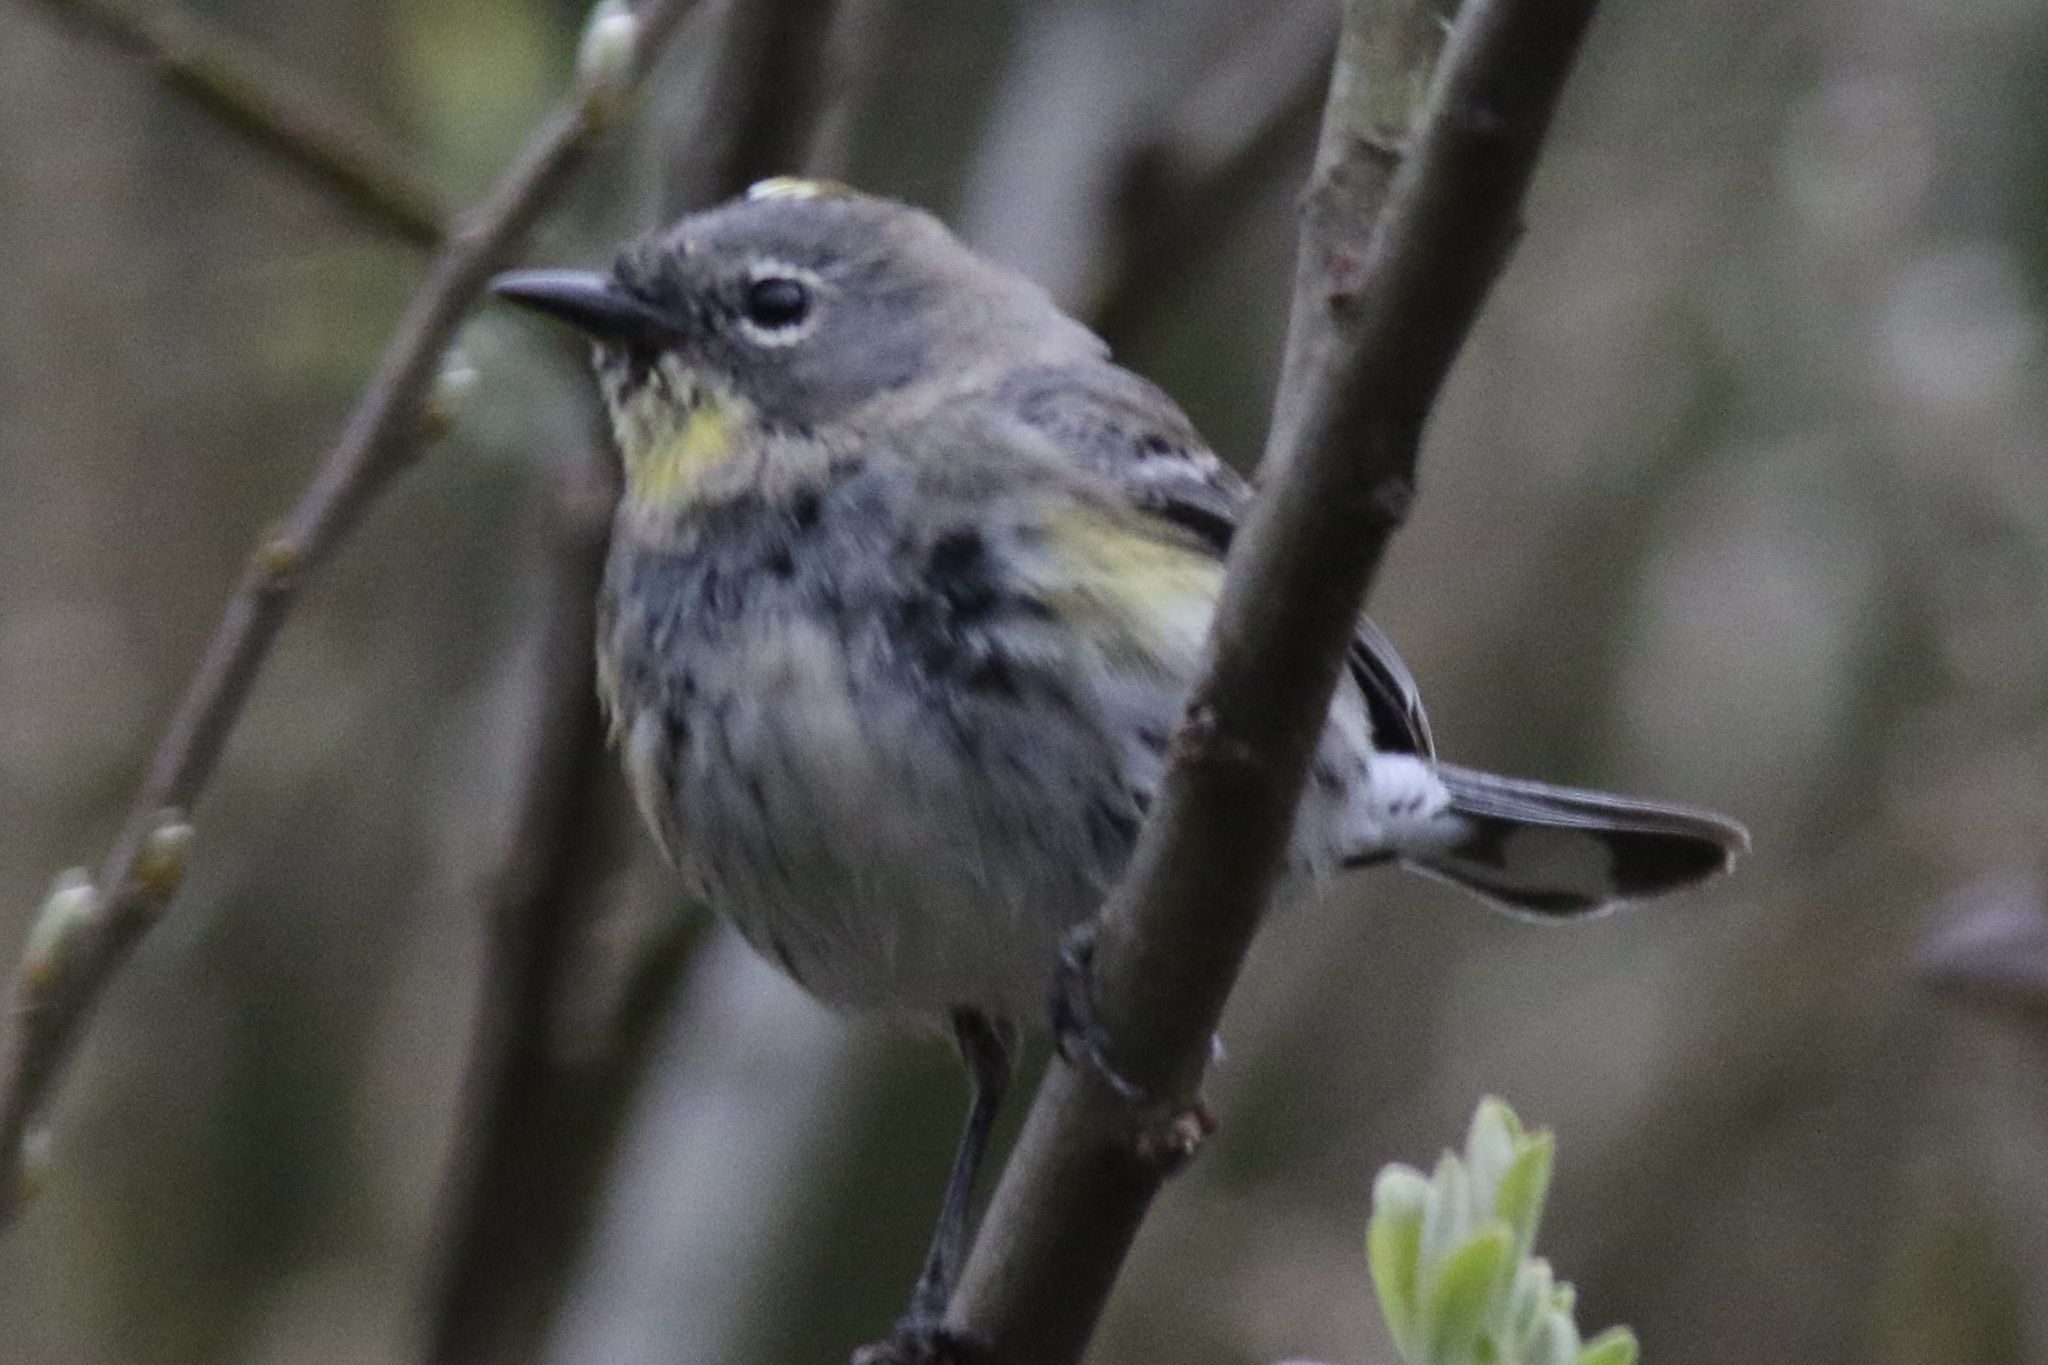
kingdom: Animalia
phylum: Chordata
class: Aves
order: Passeriformes
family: Parulidae
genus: Setophaga
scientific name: Setophaga coronata
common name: Myrtle warbler
